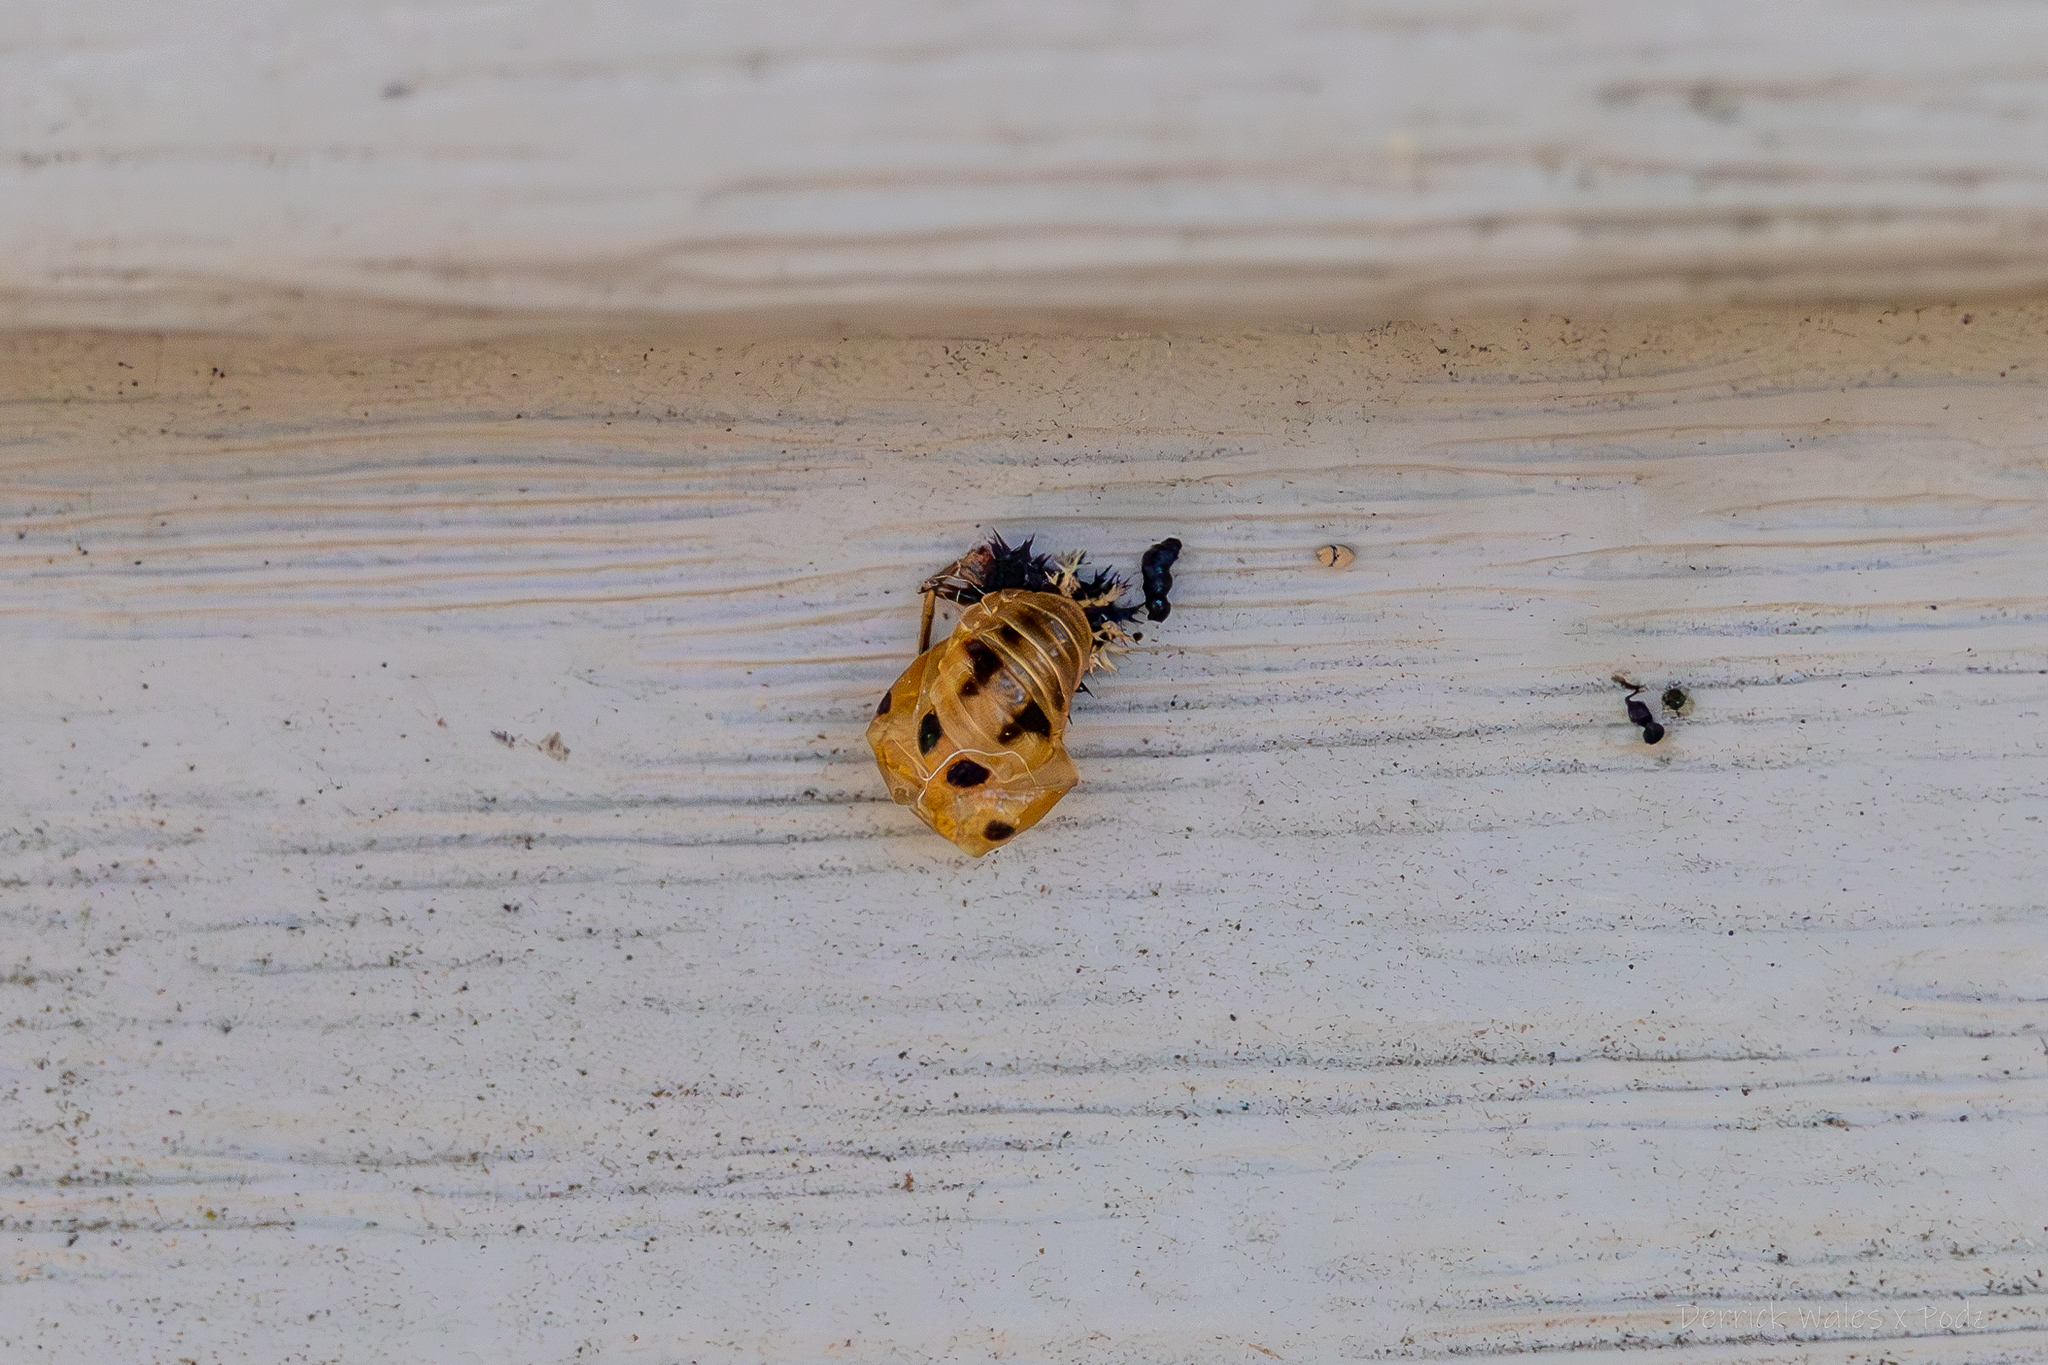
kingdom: Animalia
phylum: Arthropoda
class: Insecta
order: Coleoptera
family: Coccinellidae
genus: Harmonia
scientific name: Harmonia axyridis
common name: Harlequin ladybird
